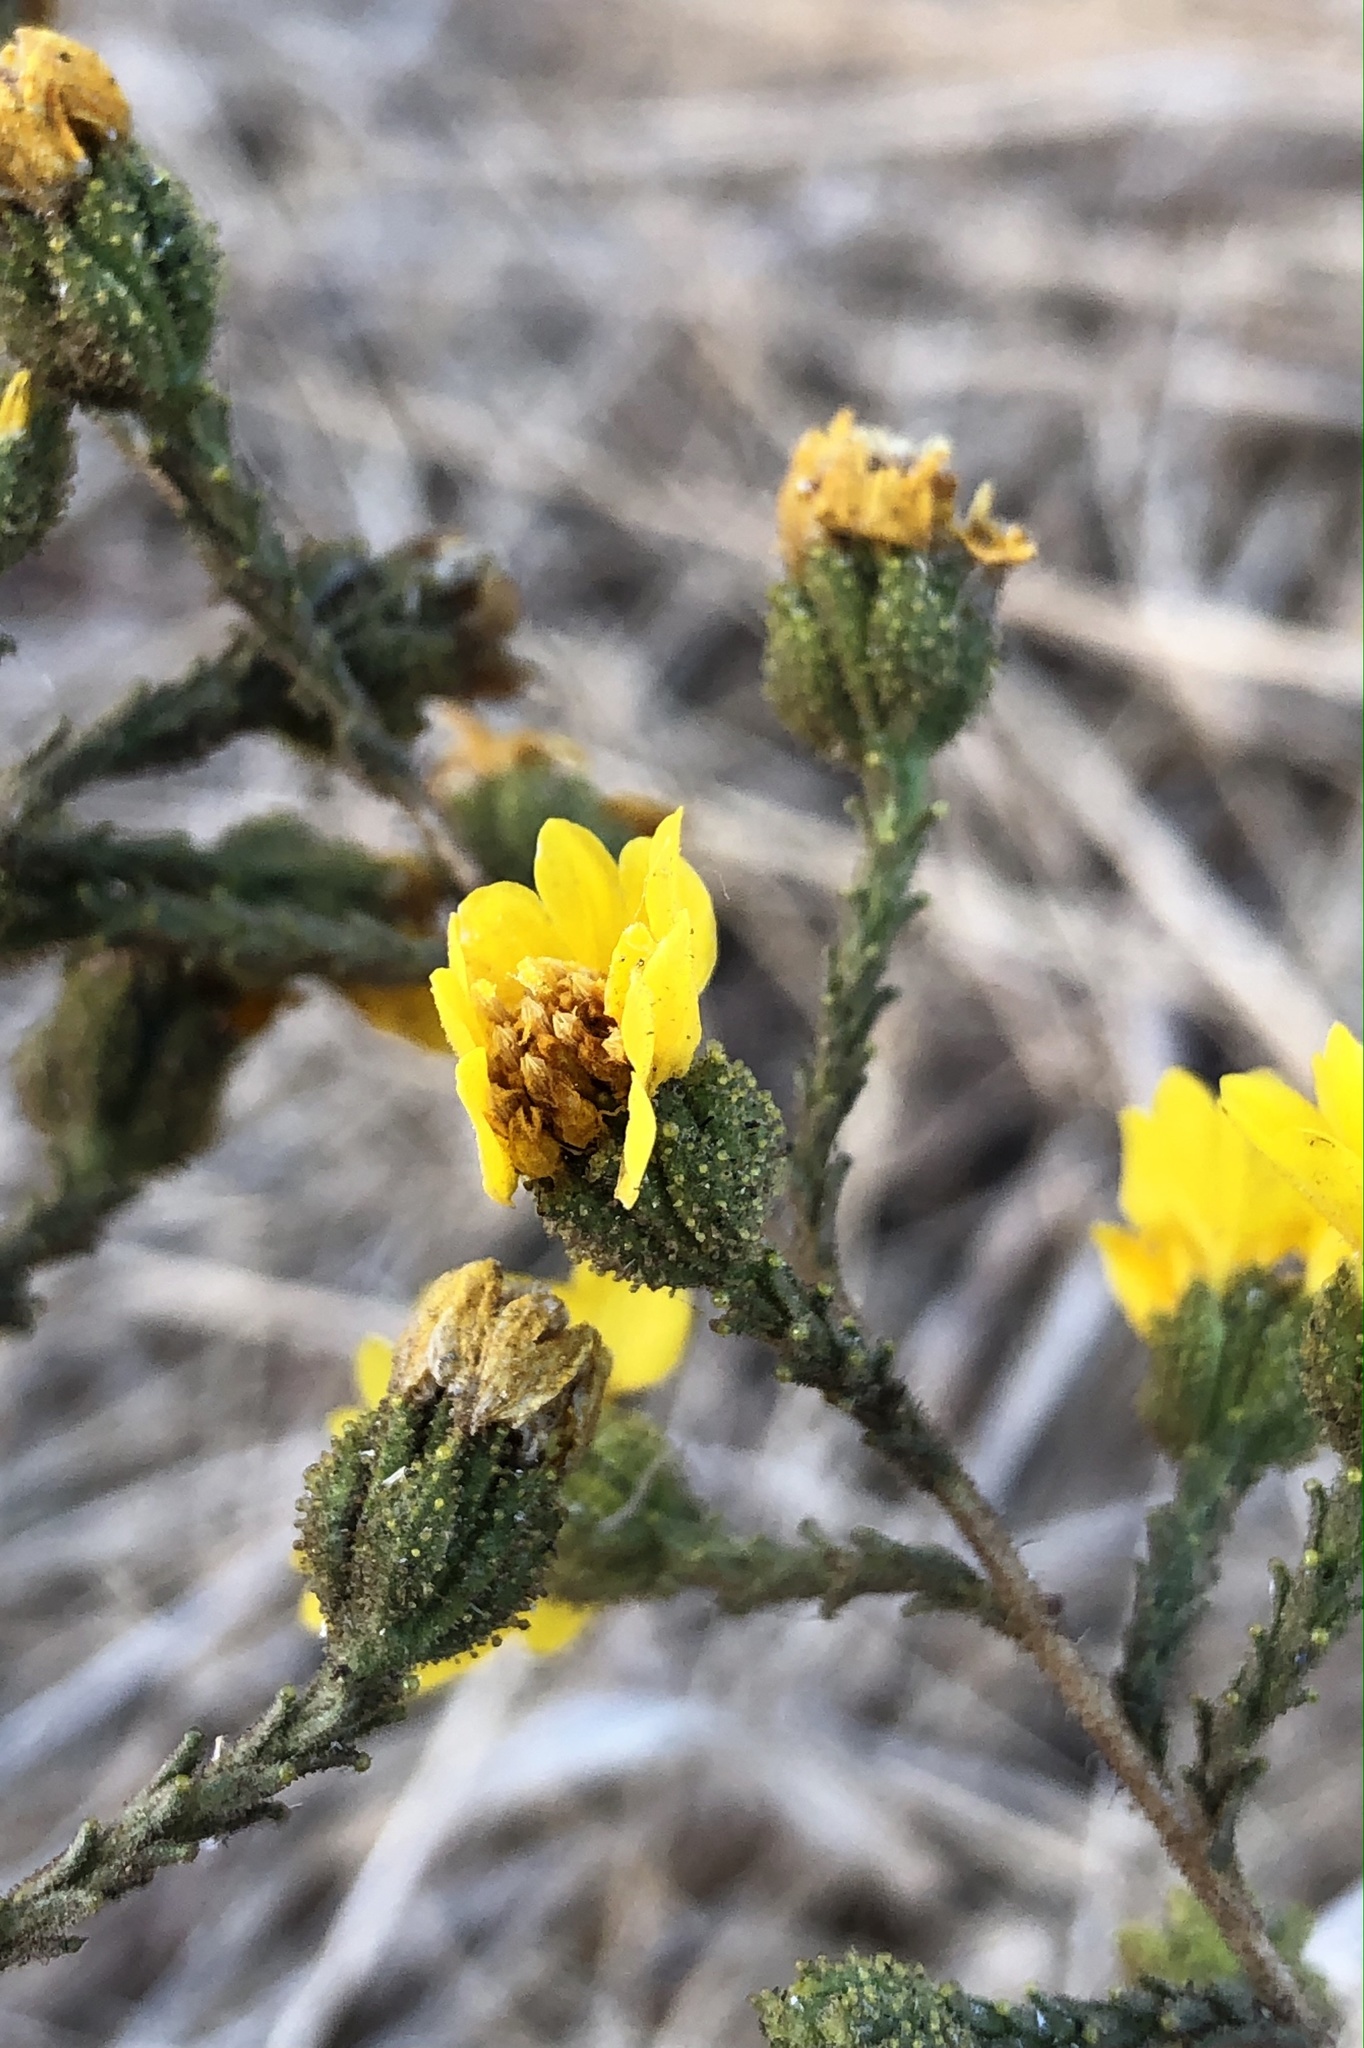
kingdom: Plantae
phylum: Tracheophyta
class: Magnoliopsida
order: Asterales
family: Asteraceae
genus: Holocarpha
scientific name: Holocarpha heermannii
